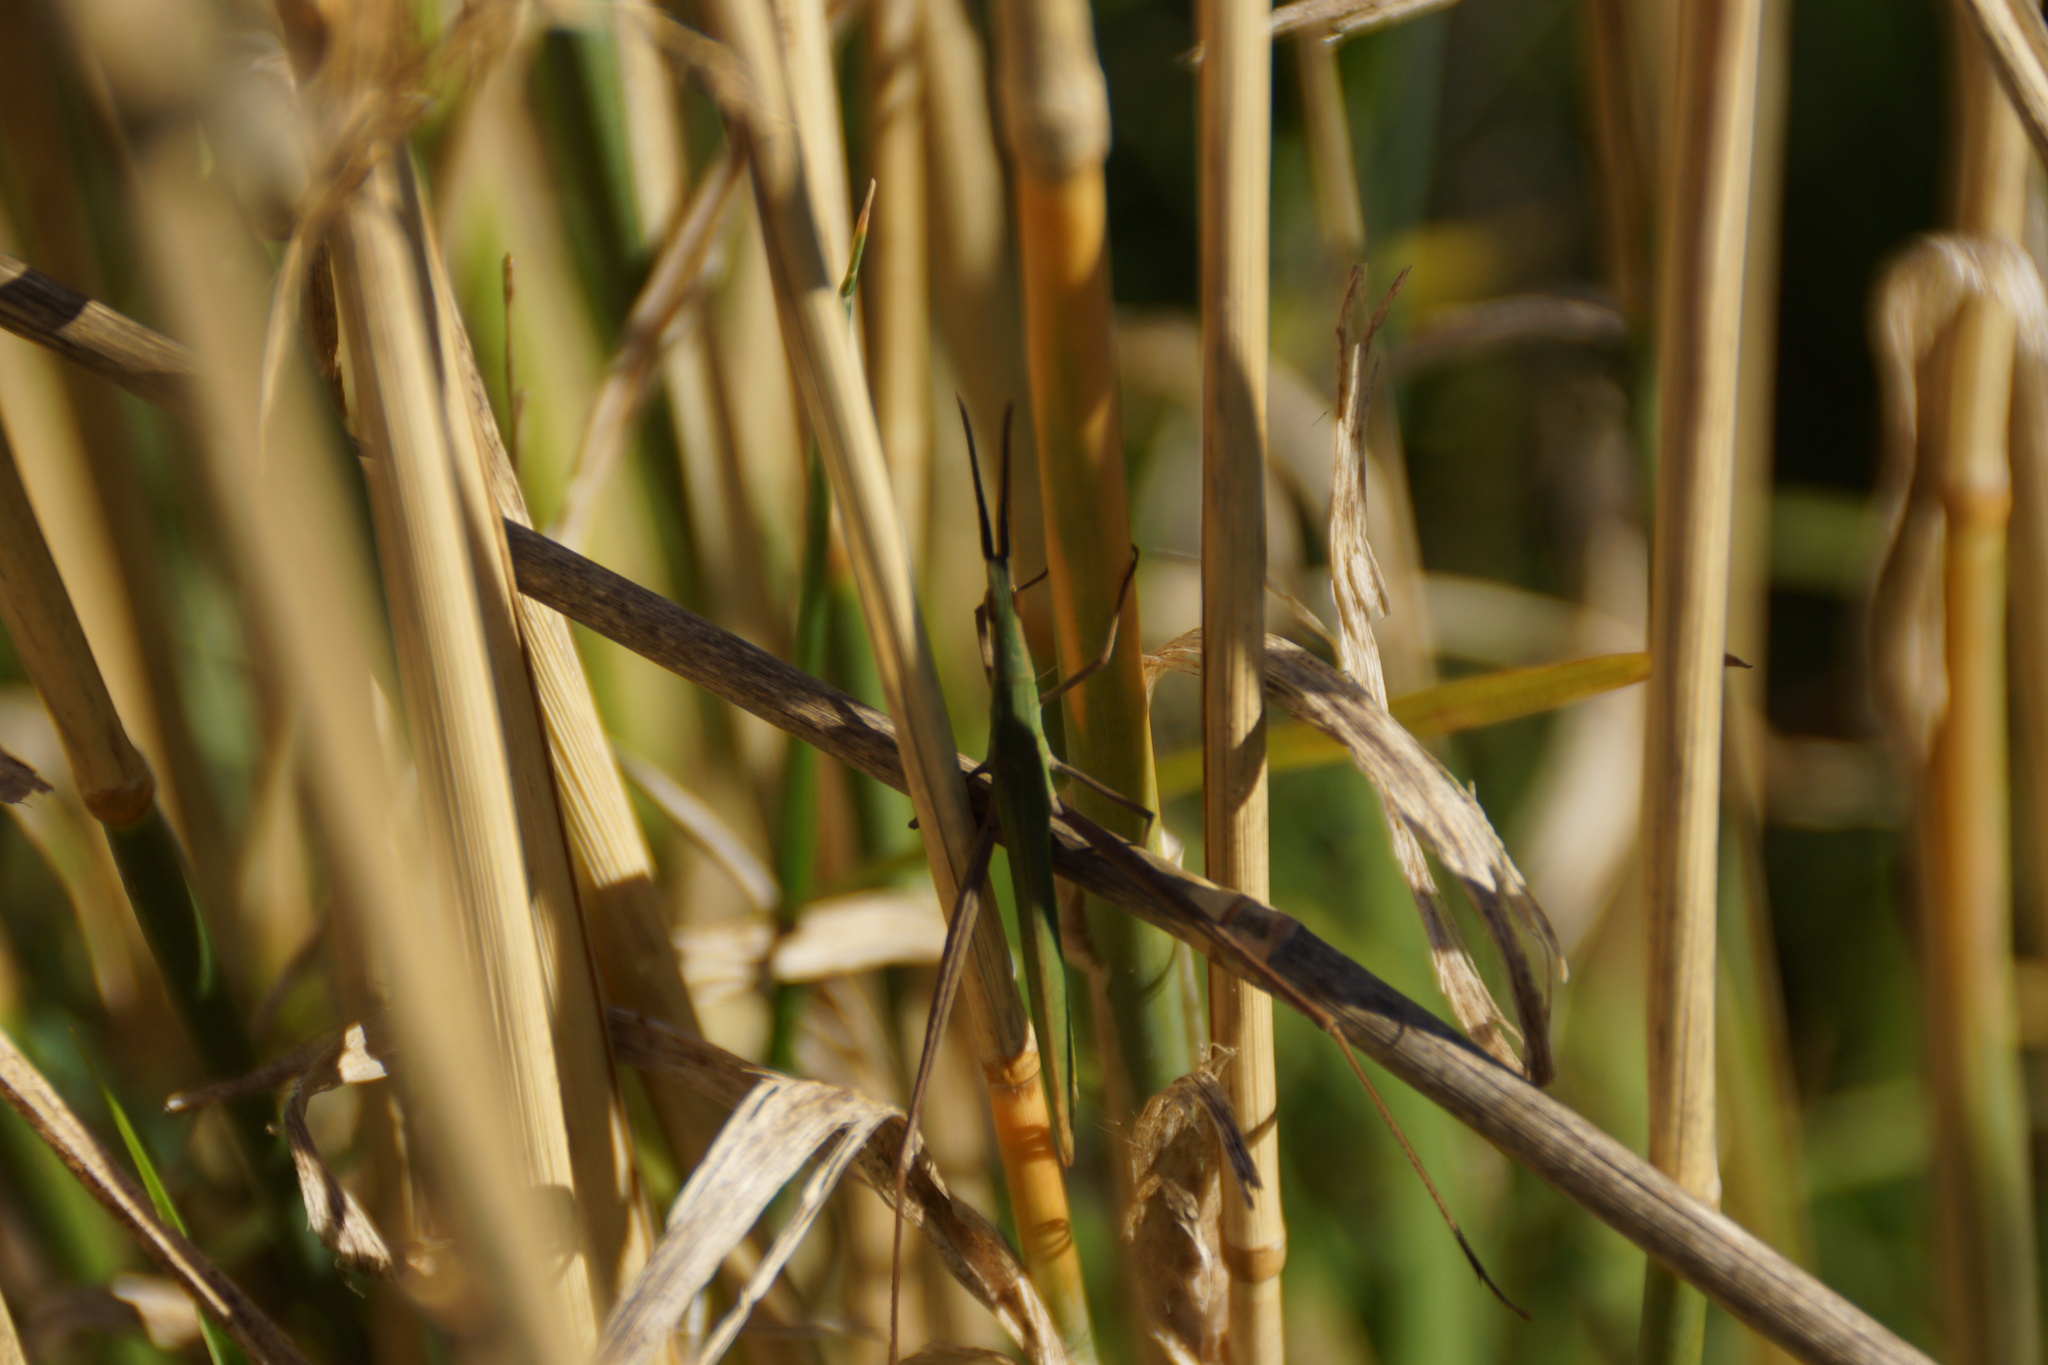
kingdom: Animalia
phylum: Arthropoda
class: Insecta
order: Orthoptera
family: Acrididae
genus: Acrida
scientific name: Acrida conica
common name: Giant green slantface
